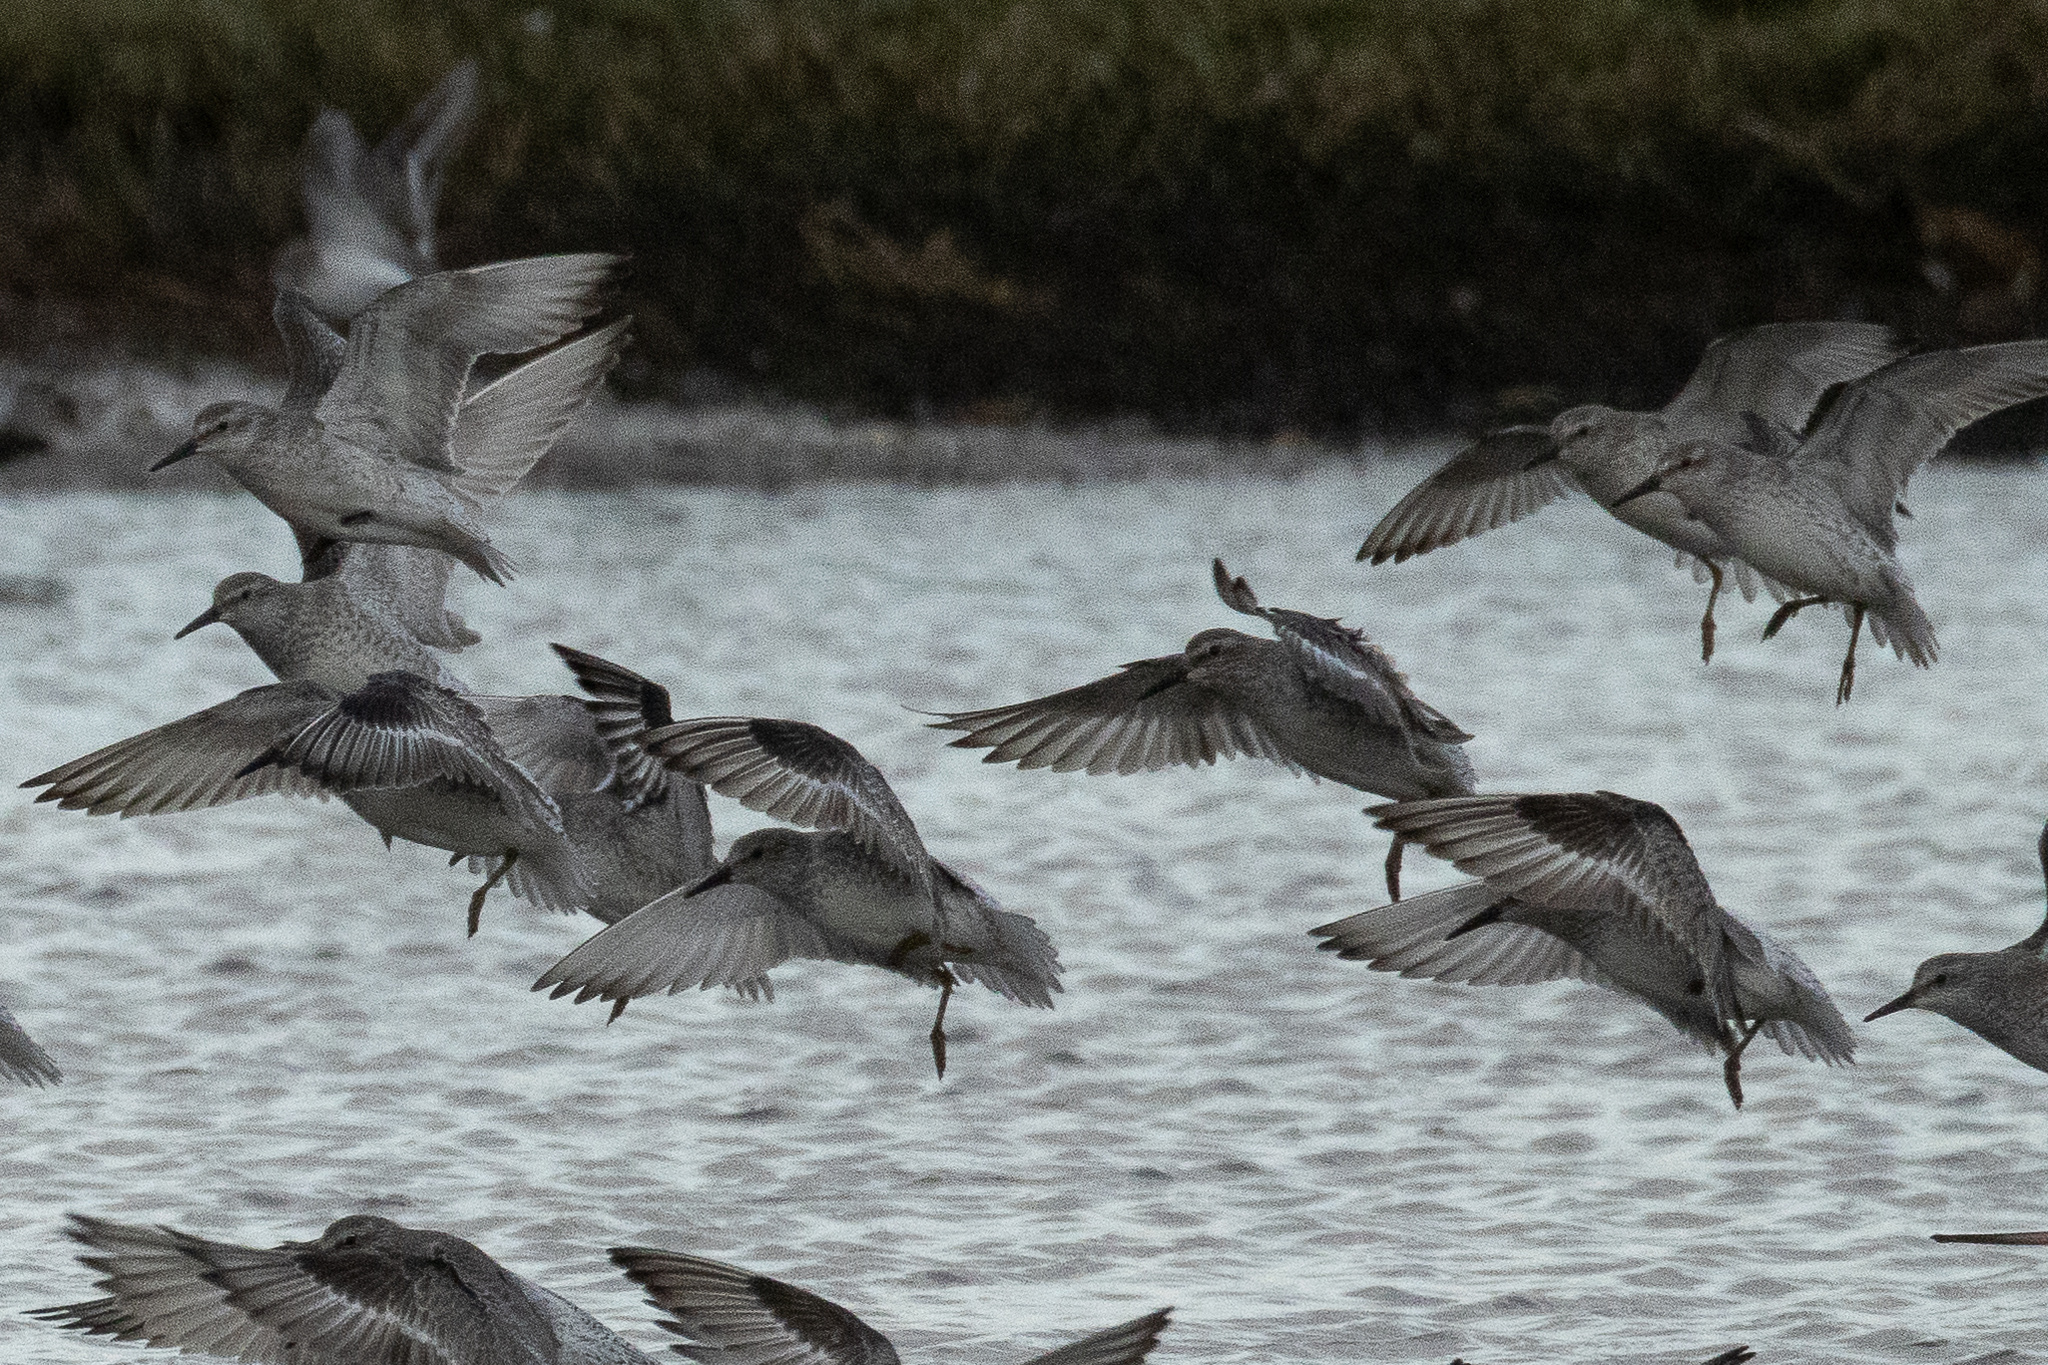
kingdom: Animalia
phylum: Chordata
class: Aves
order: Charadriiformes
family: Scolopacidae
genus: Calidris
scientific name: Calidris canutus
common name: Red knot
